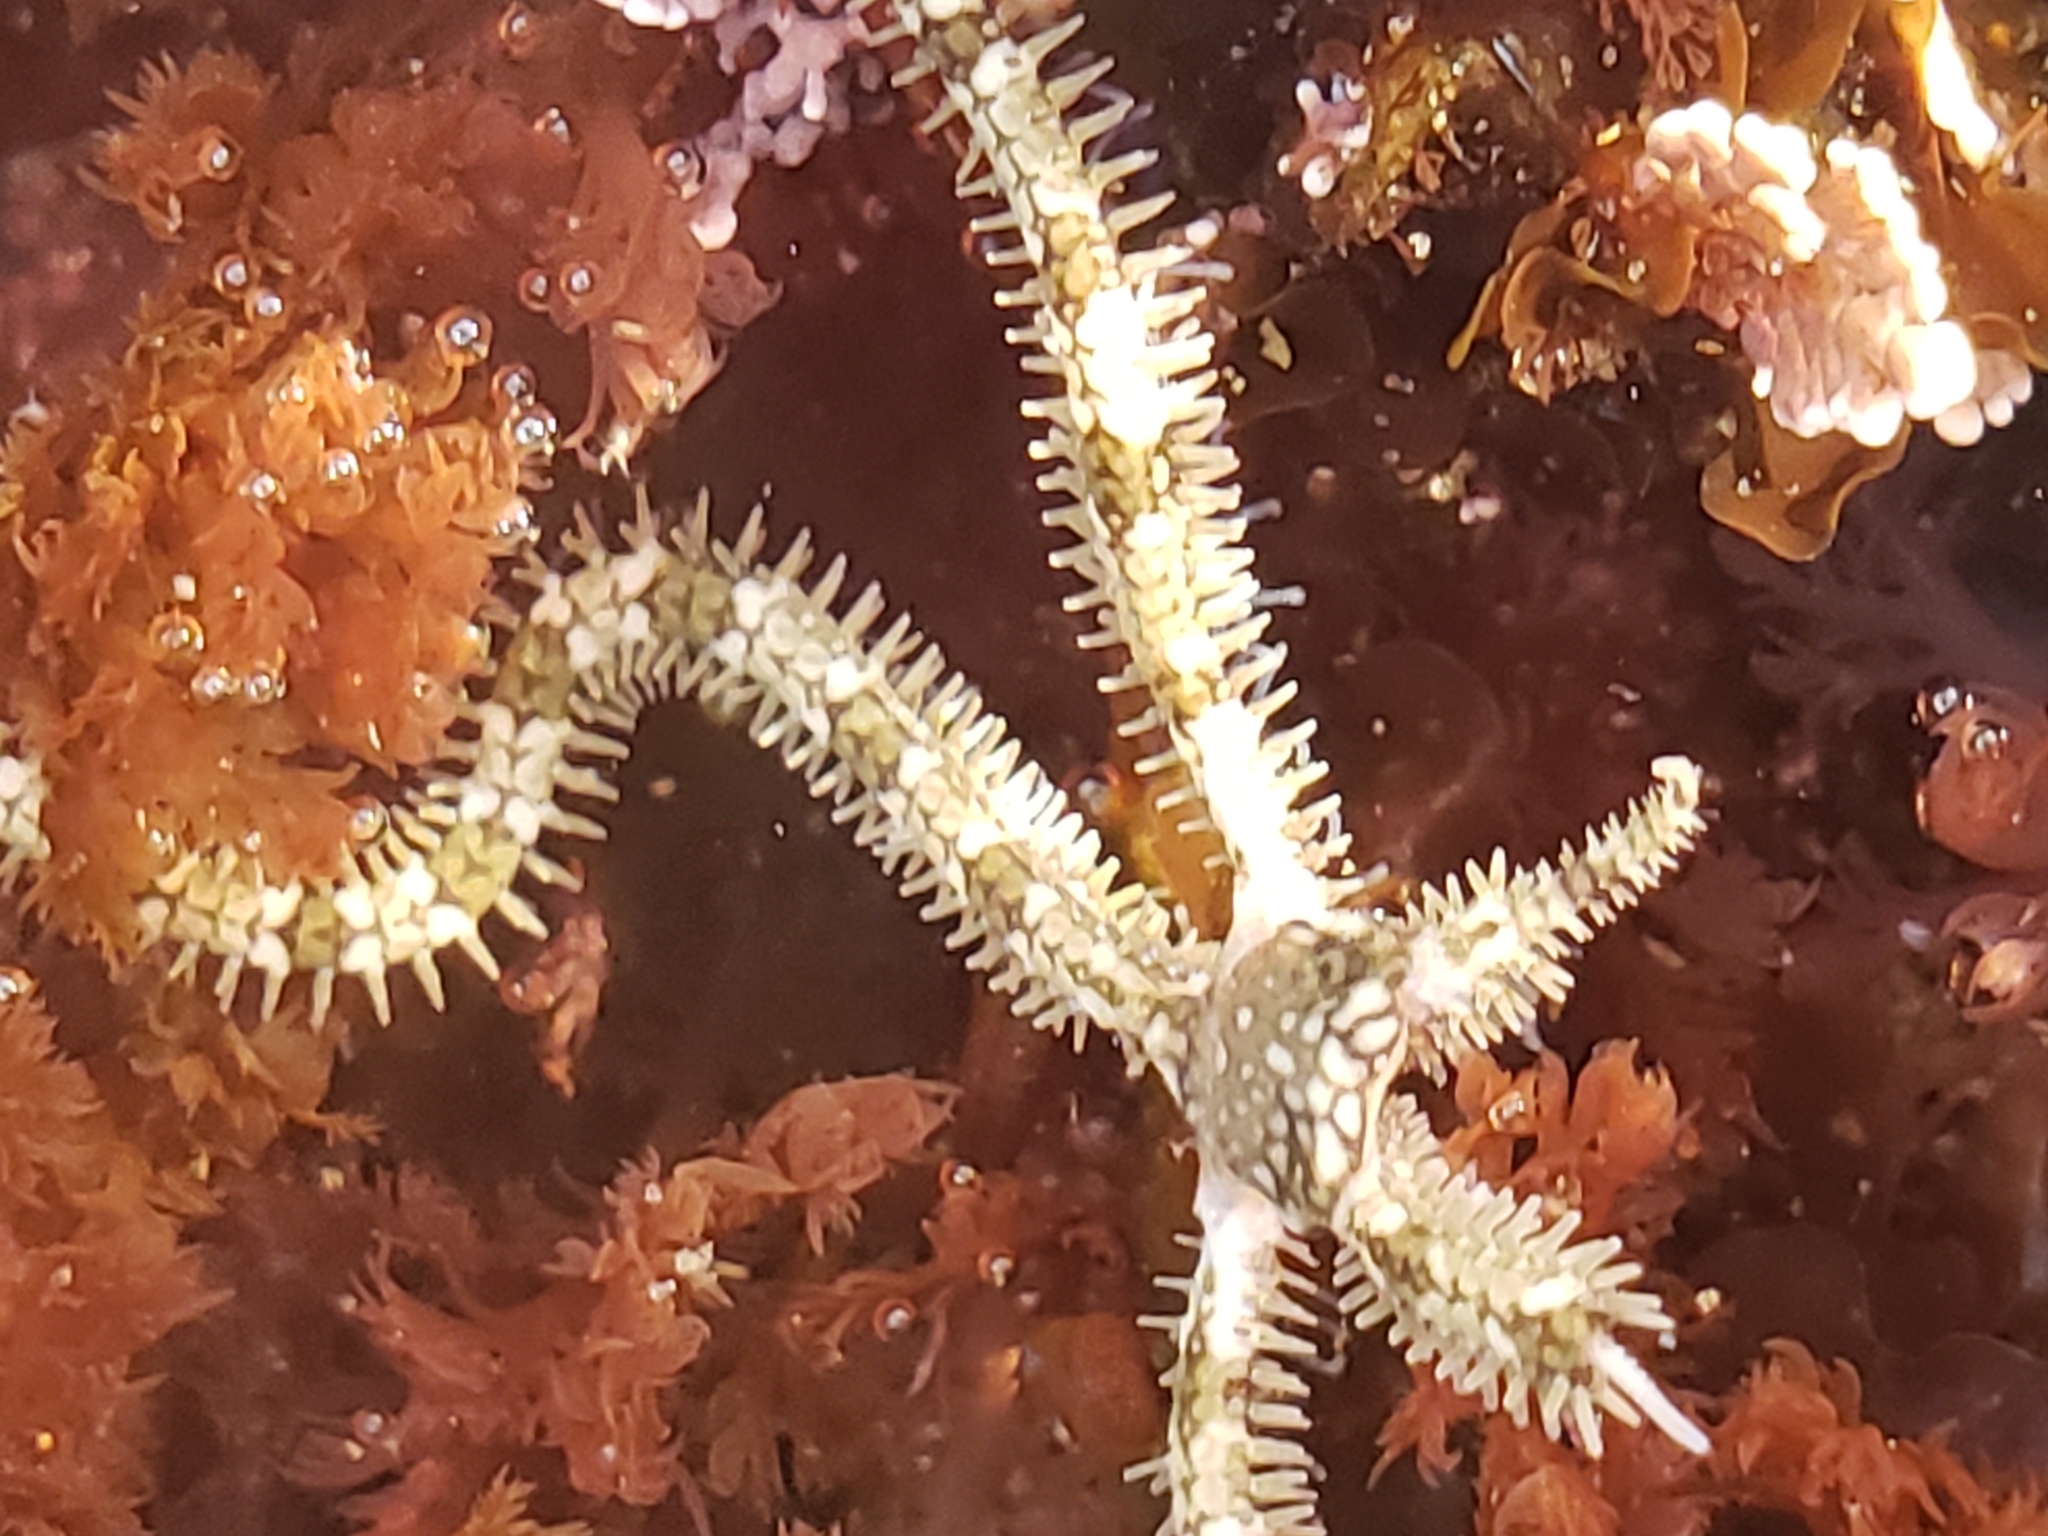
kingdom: Animalia
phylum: Echinodermata
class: Ophiuroidea
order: Amphilepidida
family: Ophionereididae
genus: Ophionereis
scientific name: Ophionereis annulata
